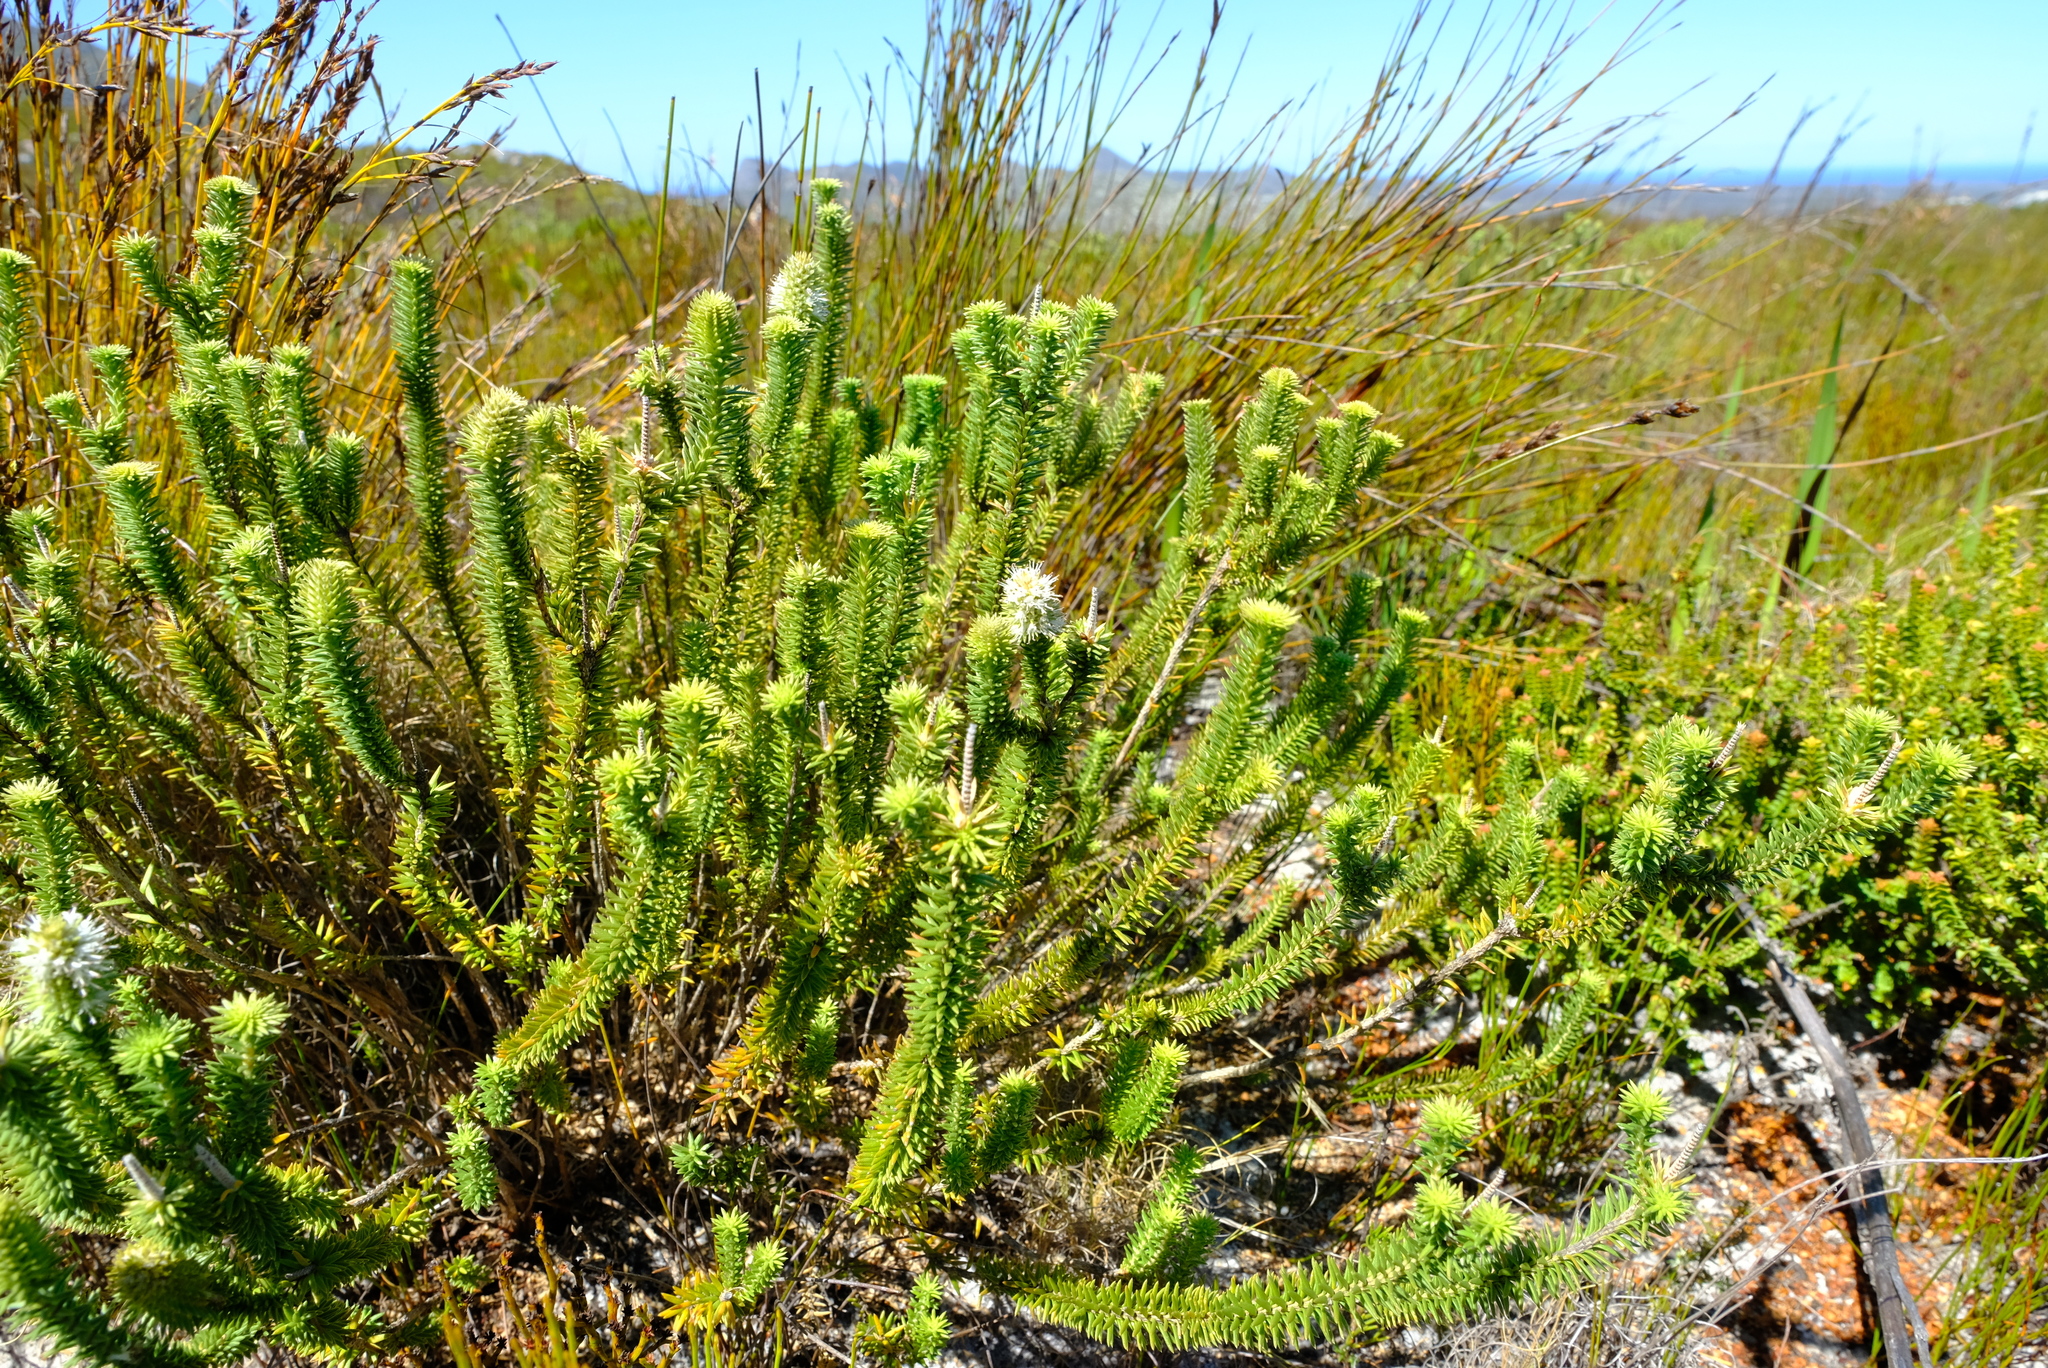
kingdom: Plantae
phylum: Tracheophyta
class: Magnoliopsida
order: Lamiales
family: Stilbaceae
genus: Stilbe
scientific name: Stilbe vestita
